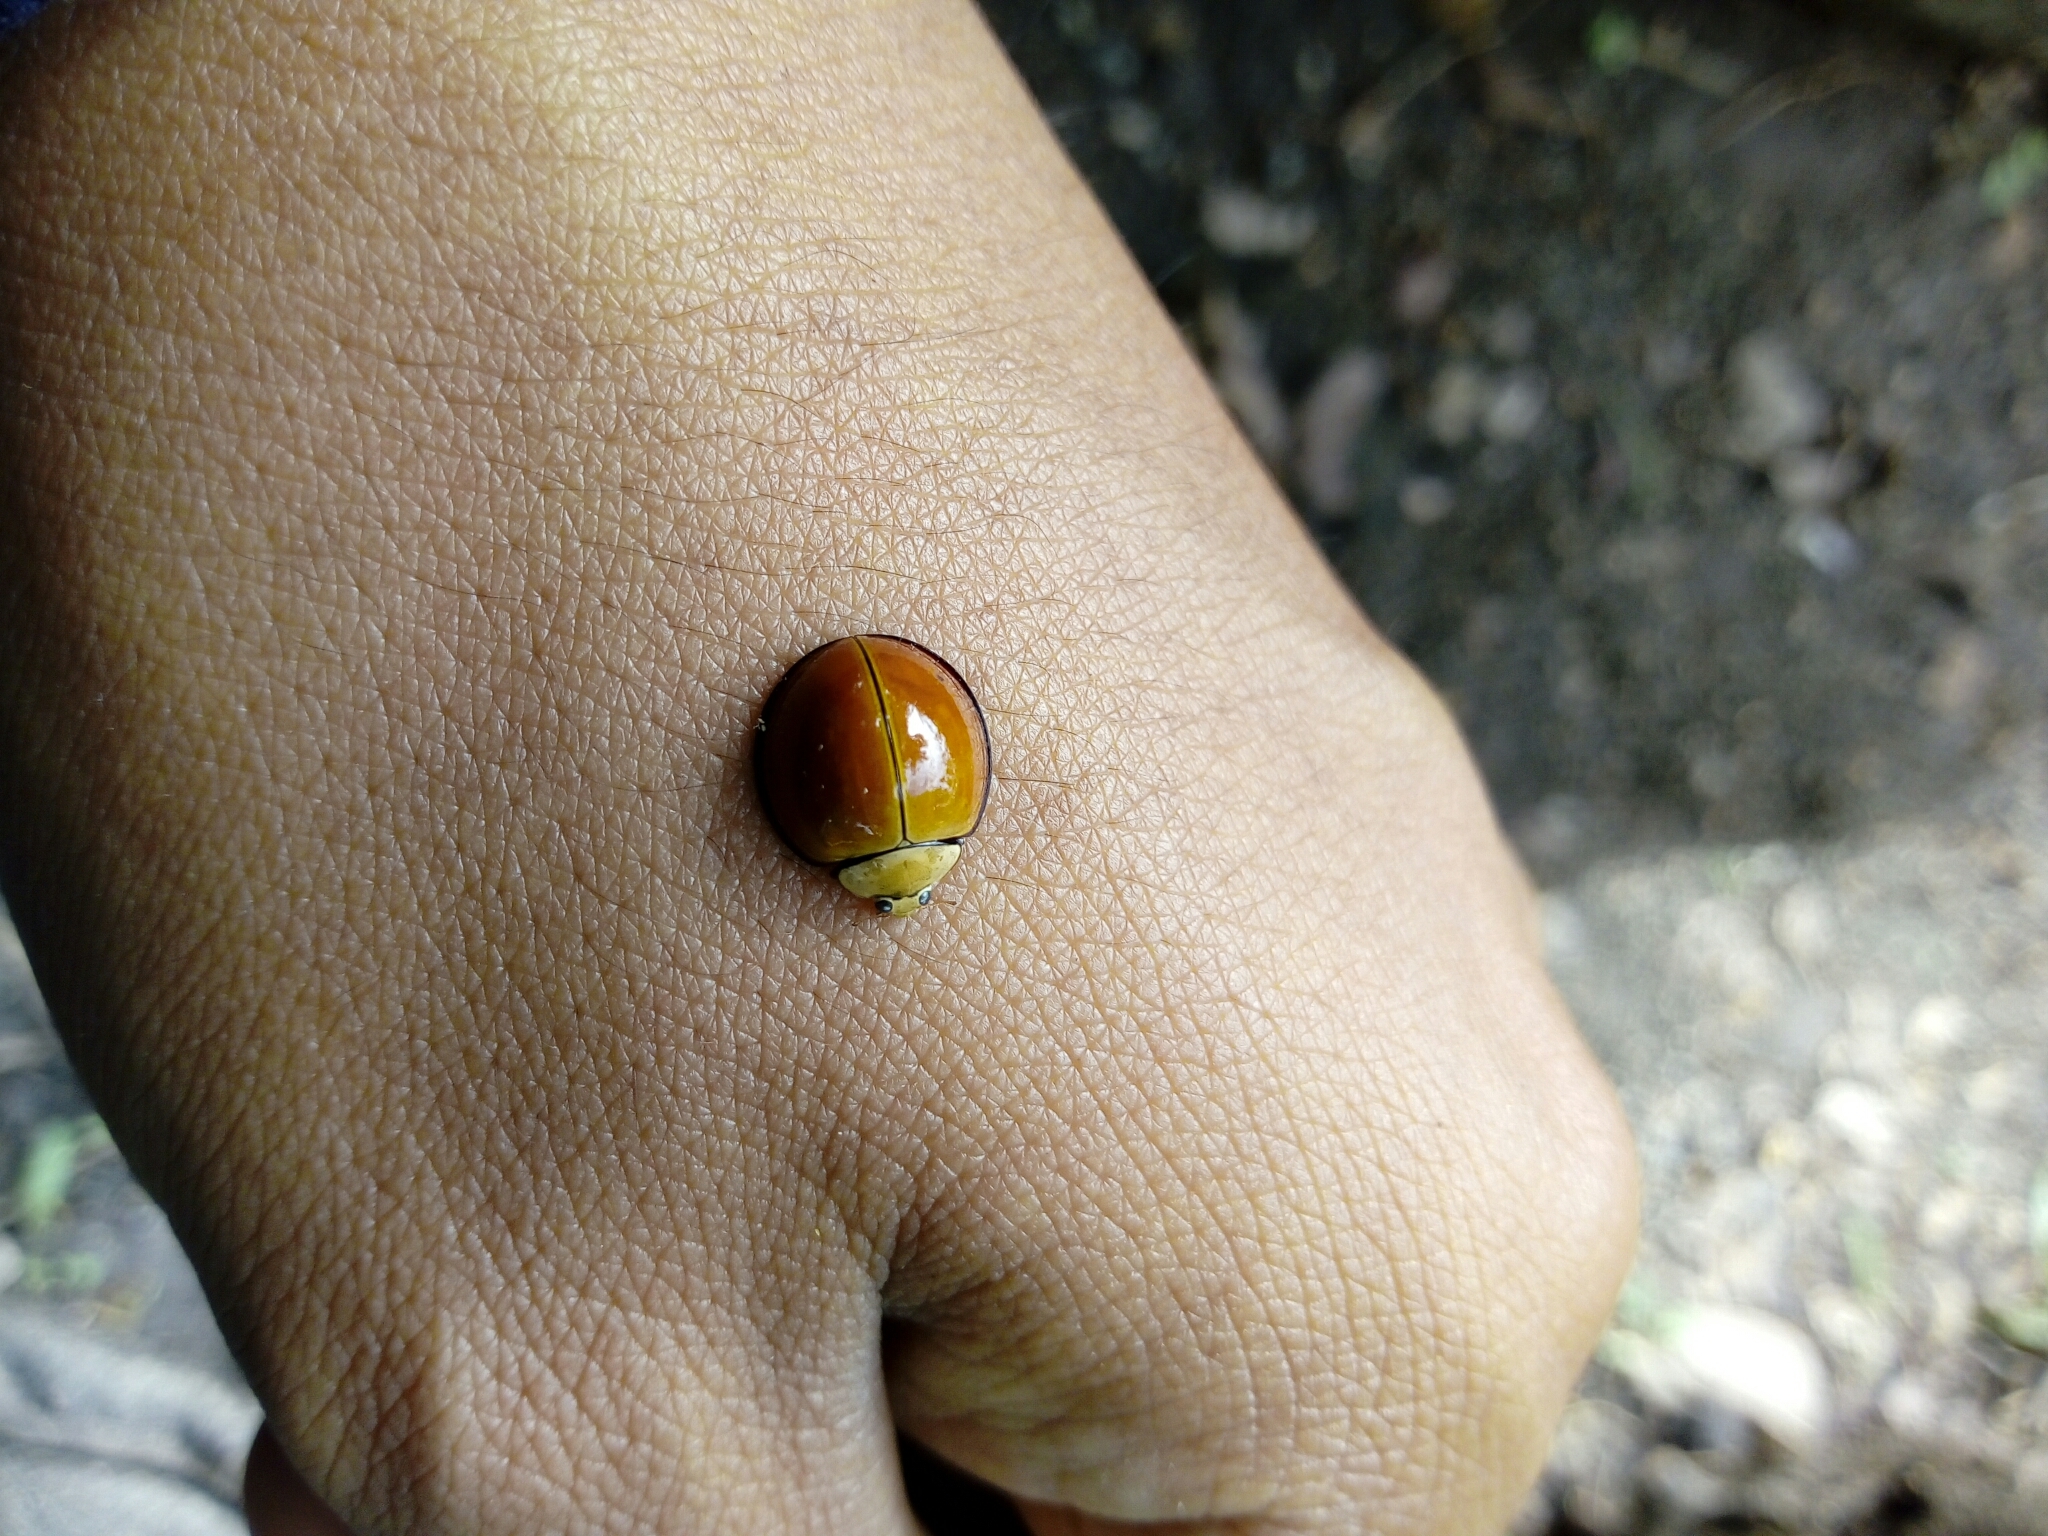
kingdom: Animalia
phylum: Arthropoda
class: Insecta
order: Coleoptera
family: Coccinellidae
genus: Neda
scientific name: Neda
